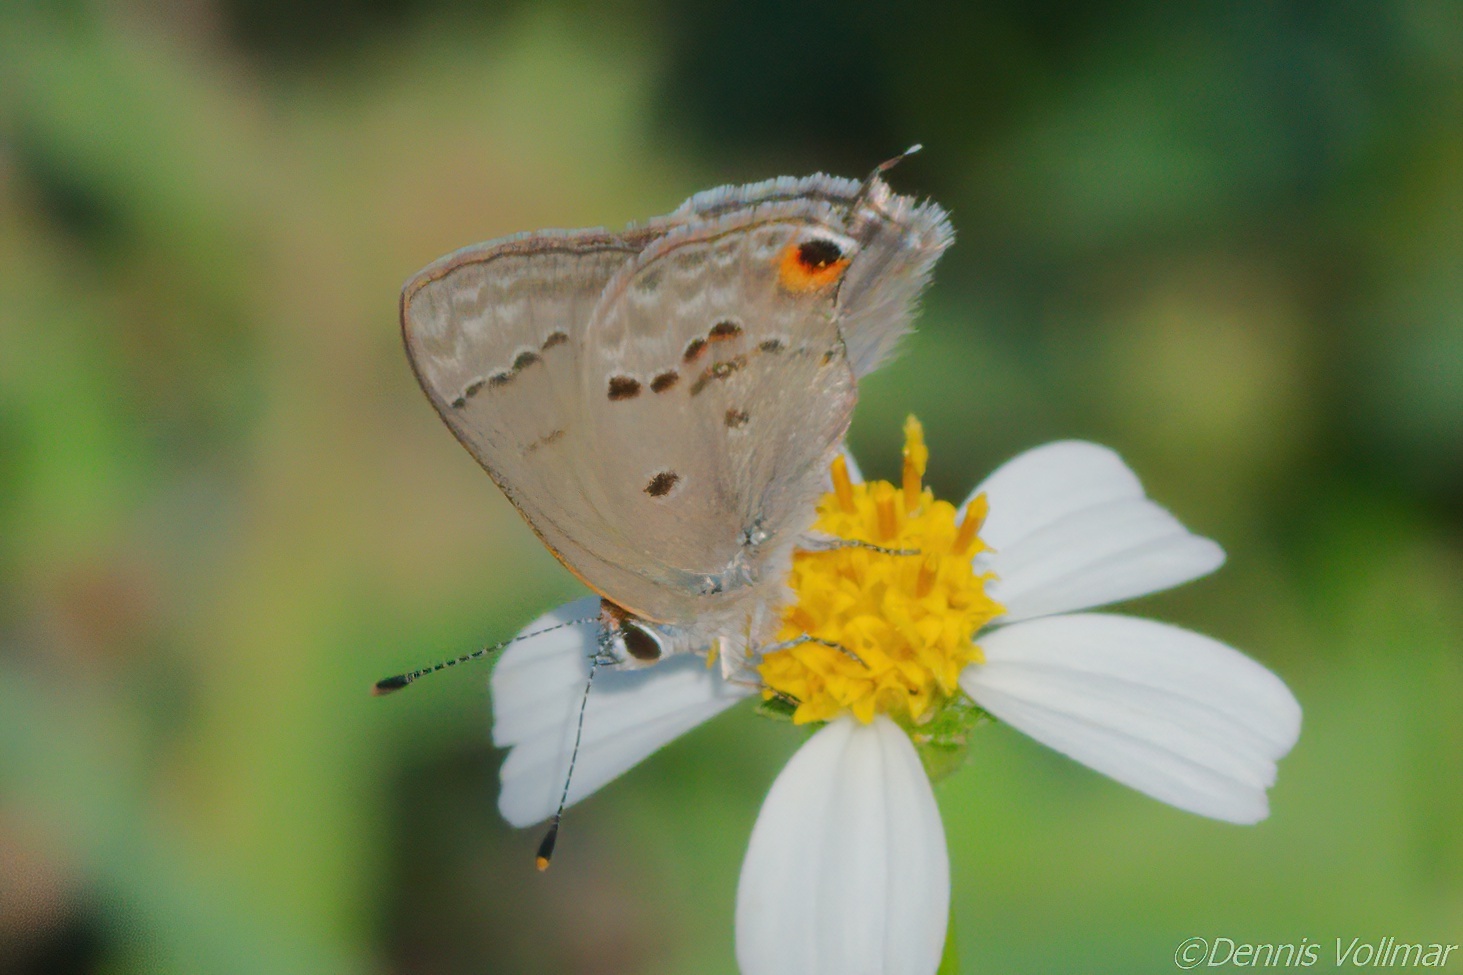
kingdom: Animalia
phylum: Arthropoda
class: Insecta
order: Lepidoptera
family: Lycaenidae
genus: Callicista
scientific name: Callicista columella
